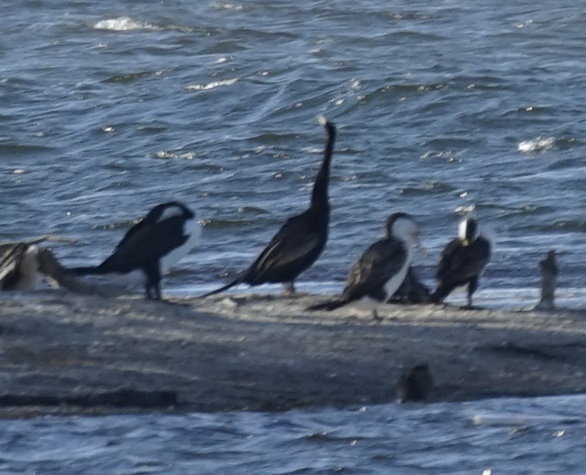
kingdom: Animalia
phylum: Chordata
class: Aves
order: Suliformes
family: Anhingidae
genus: Anhinga
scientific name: Anhinga novaehollandiae
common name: Australasian darter
